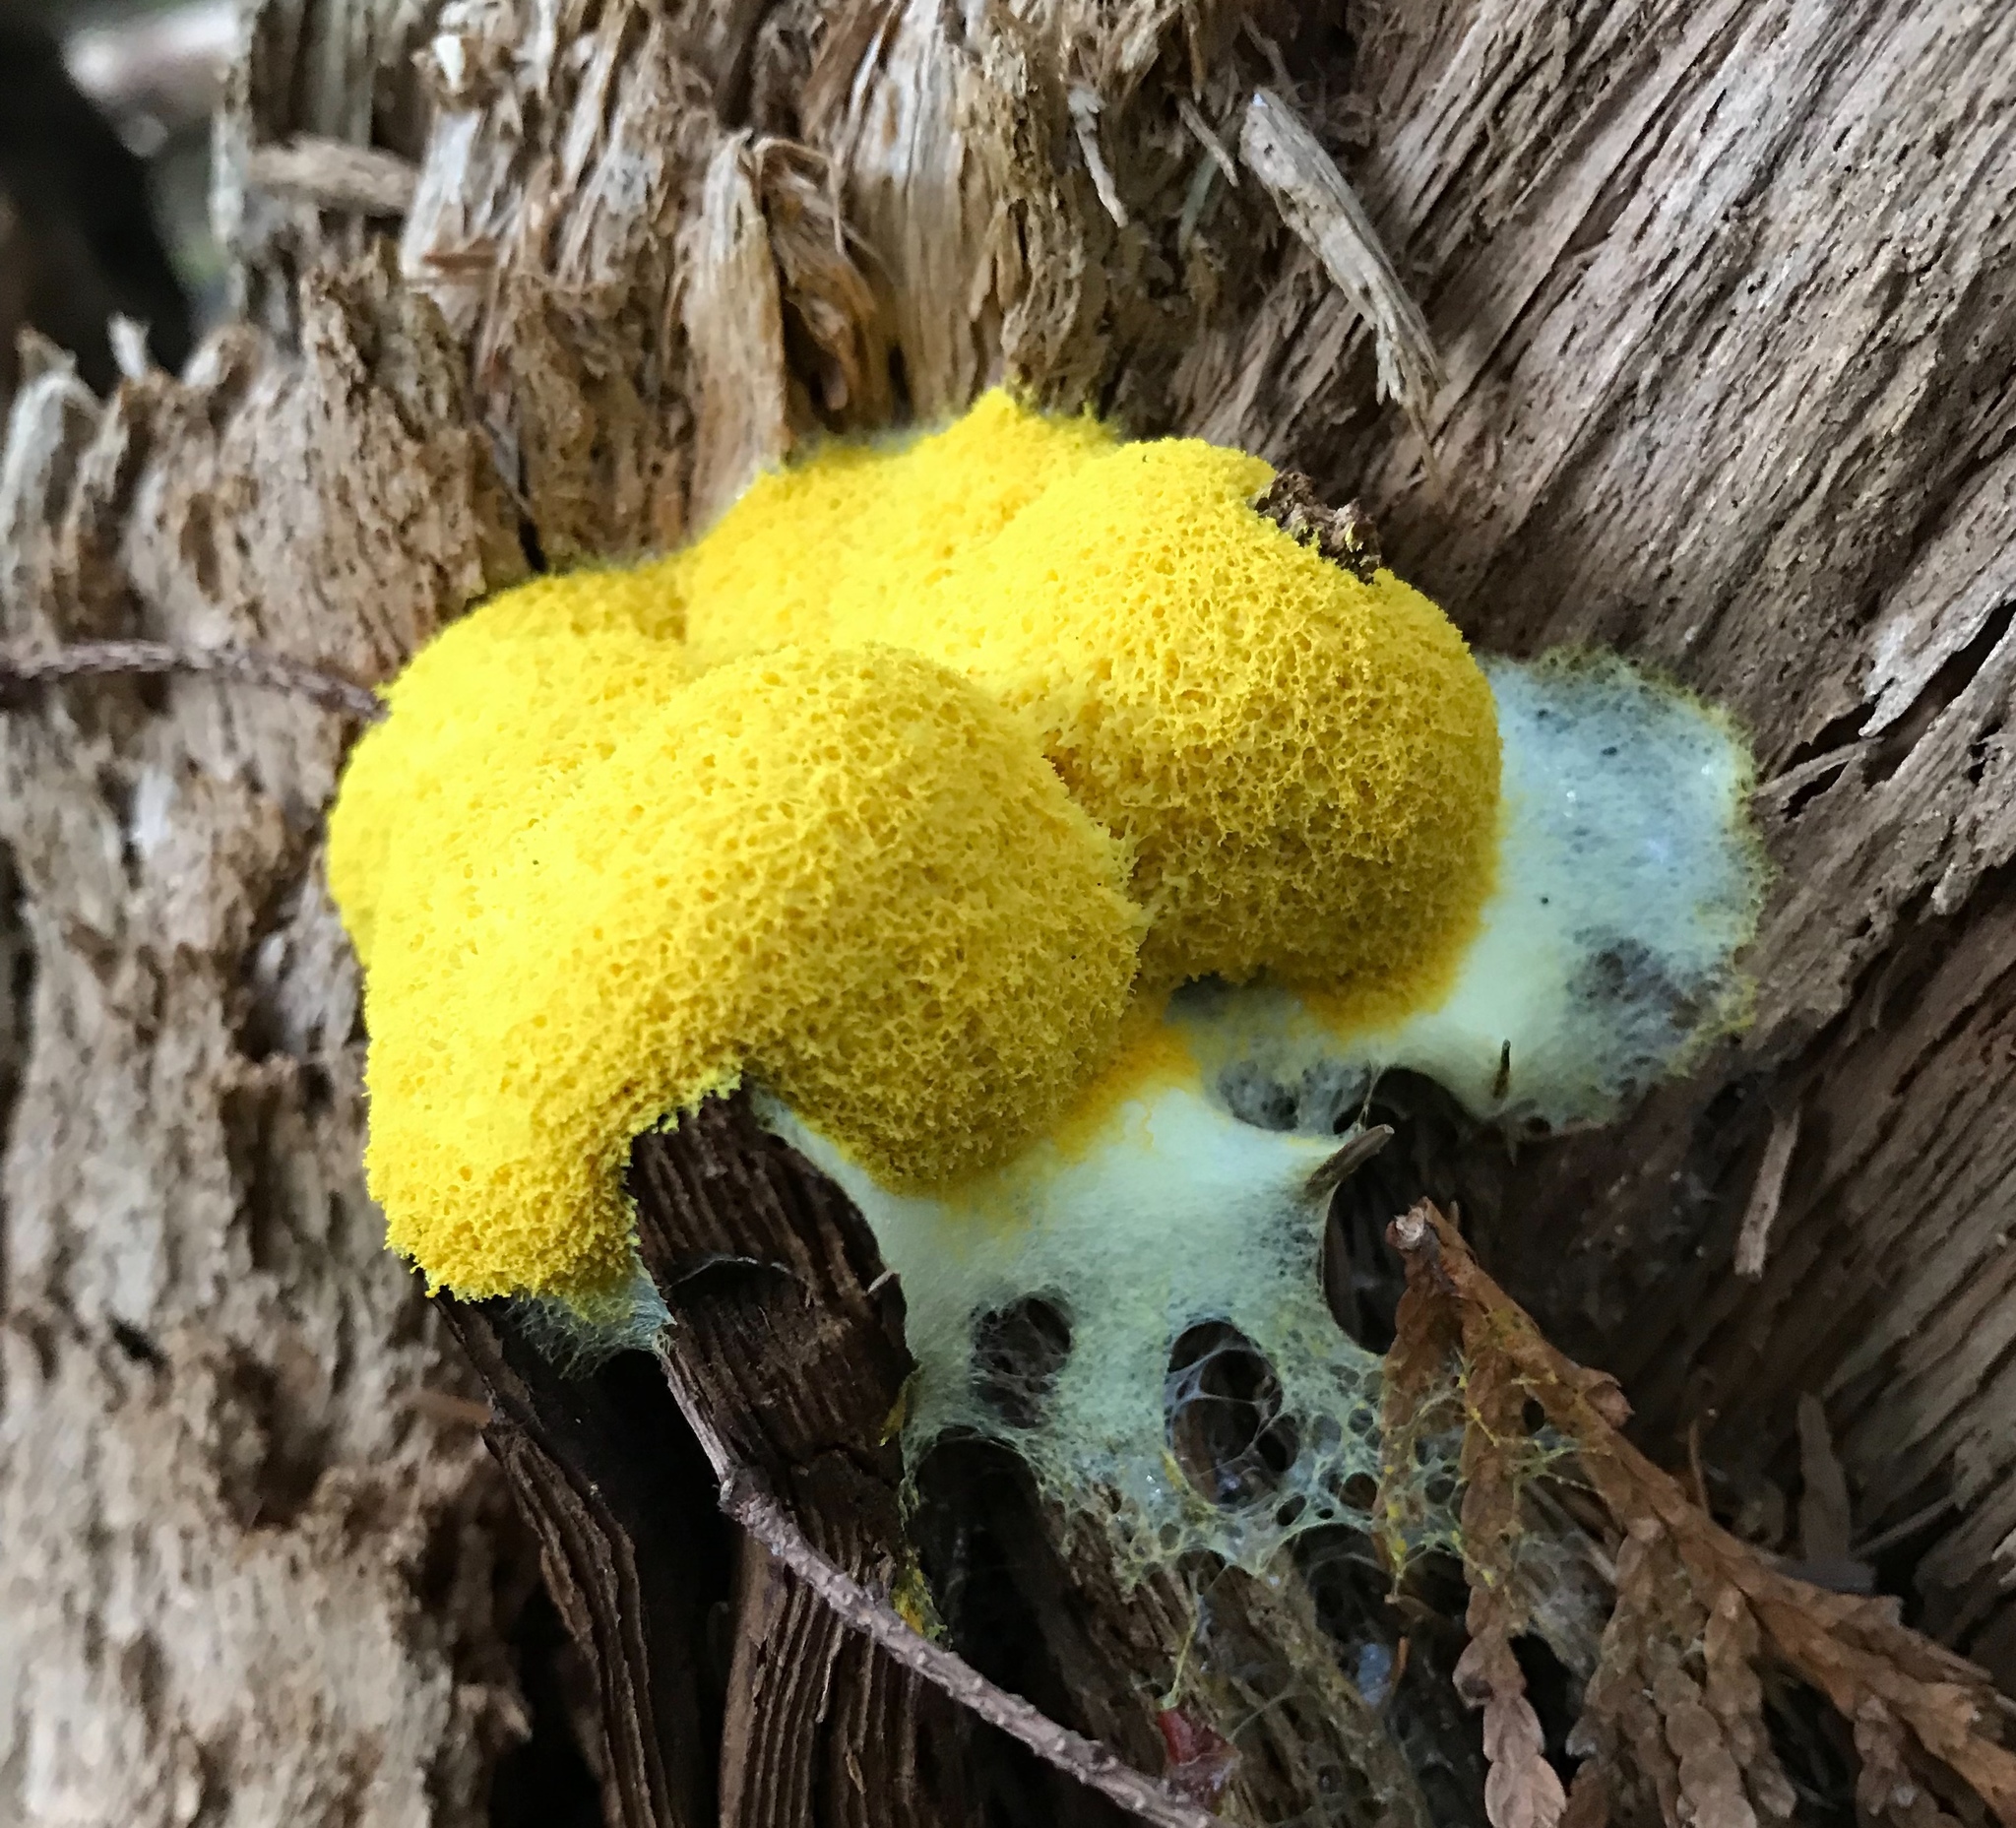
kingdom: Protozoa
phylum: Mycetozoa
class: Myxomycetes
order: Physarales
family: Physaraceae
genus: Fuligo
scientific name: Fuligo septica
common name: Dog vomit slime mold
